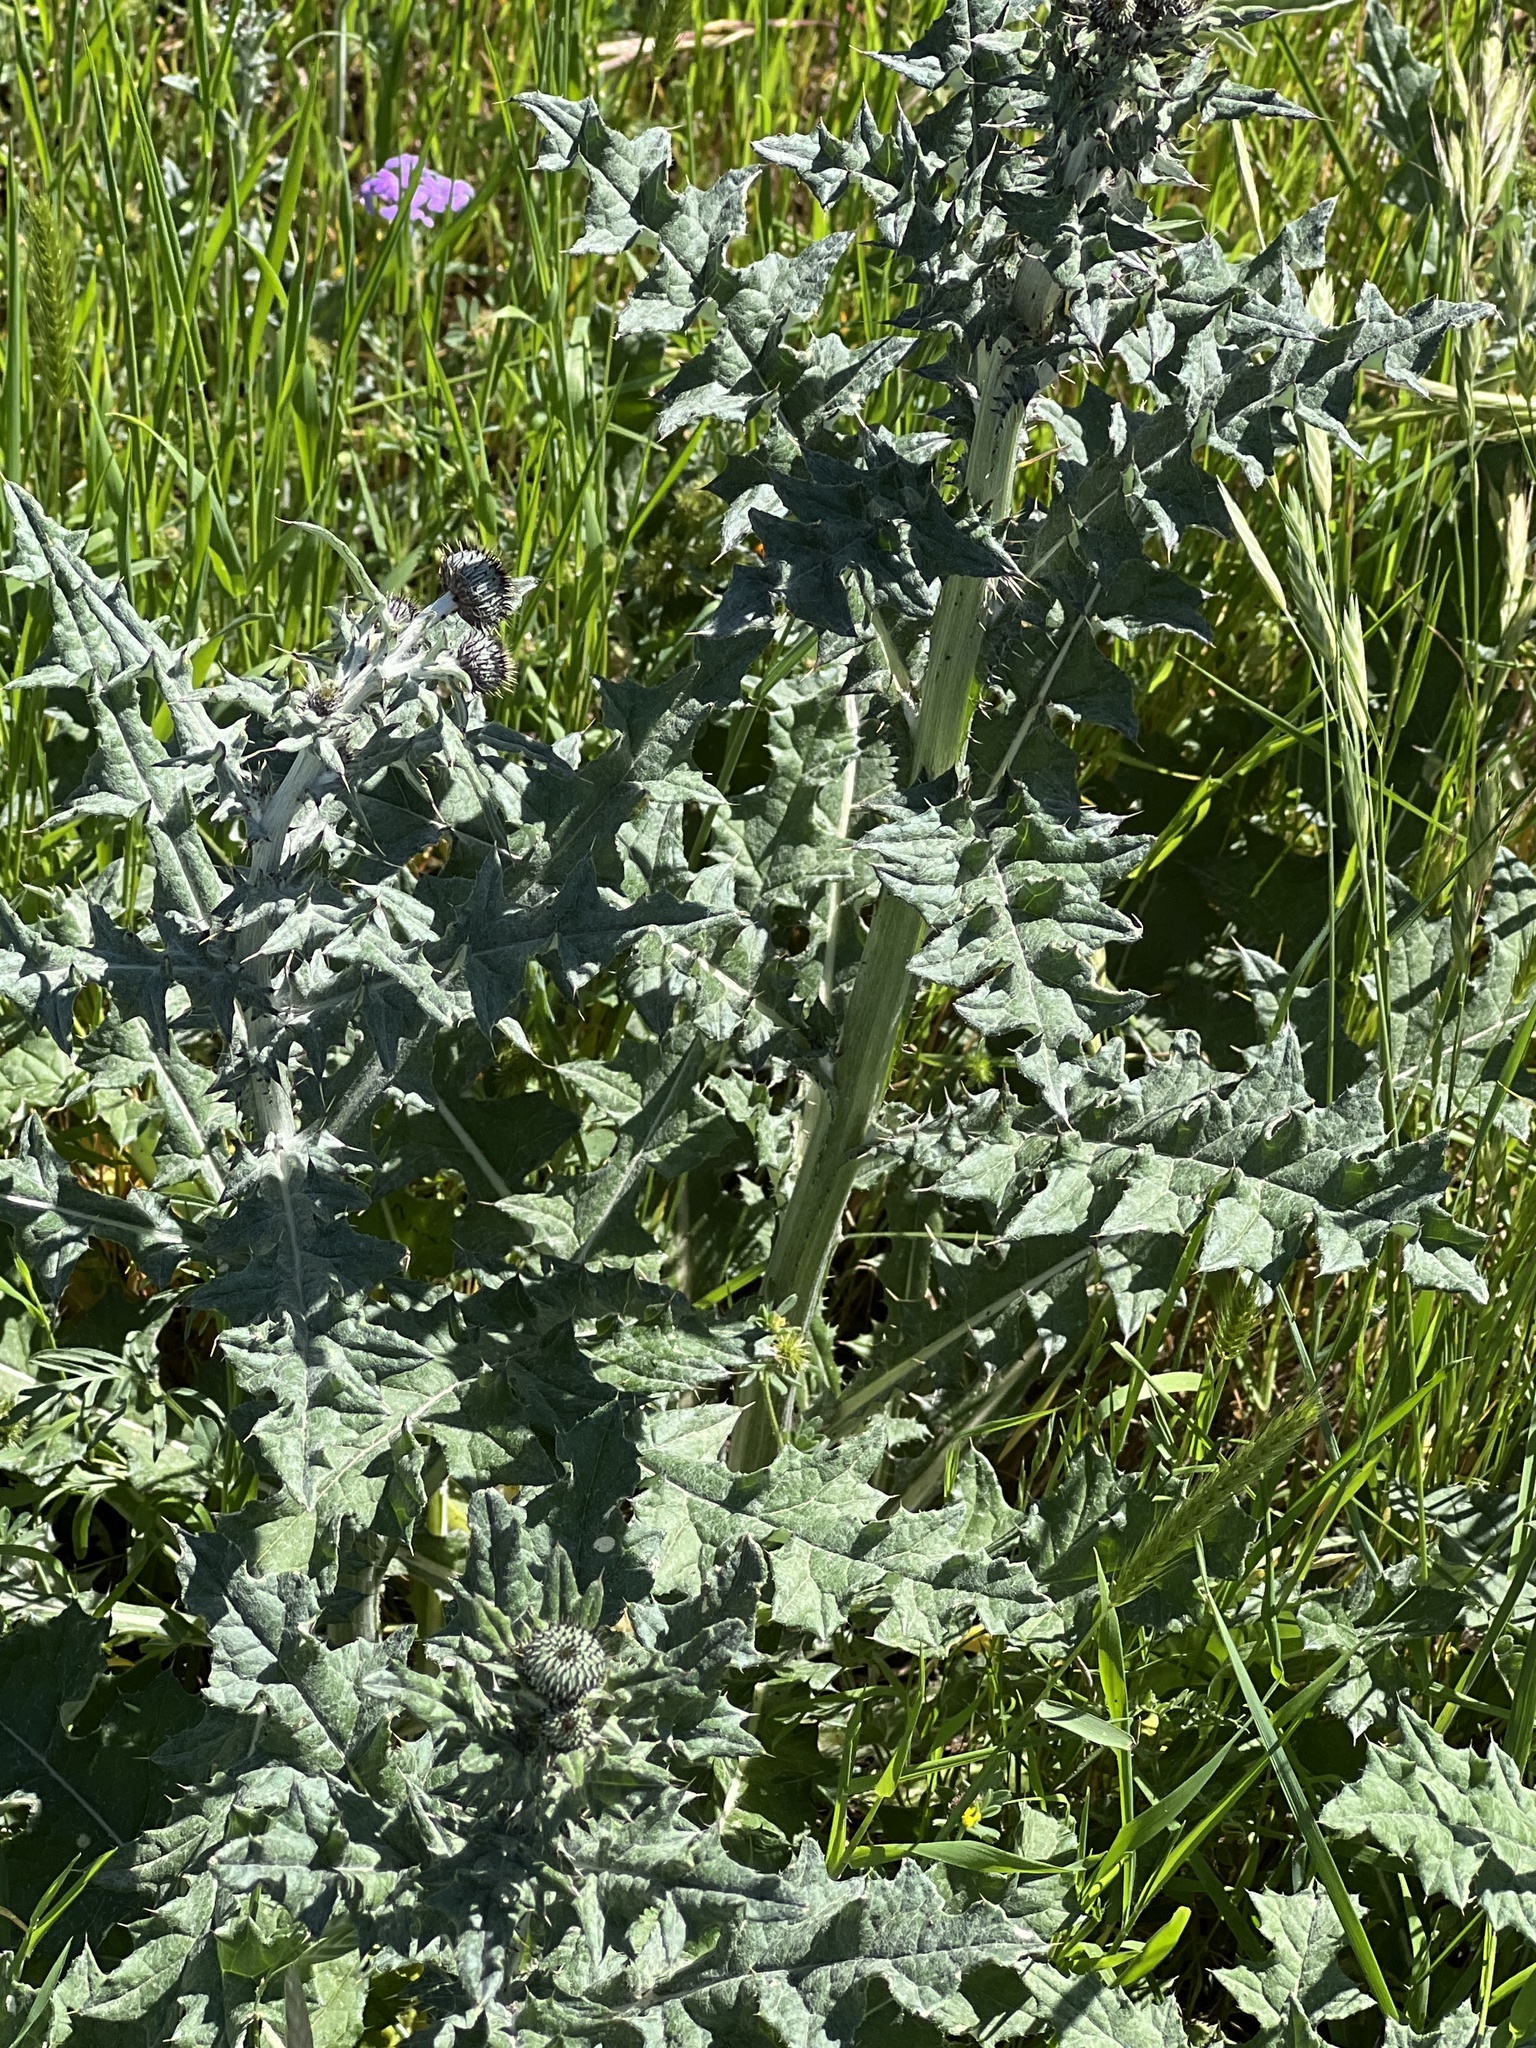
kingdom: Plantae
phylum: Tracheophyta
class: Magnoliopsida
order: Asterales
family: Asteraceae
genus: Cirsium
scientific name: Cirsium texanum
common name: Texas purple thistle
